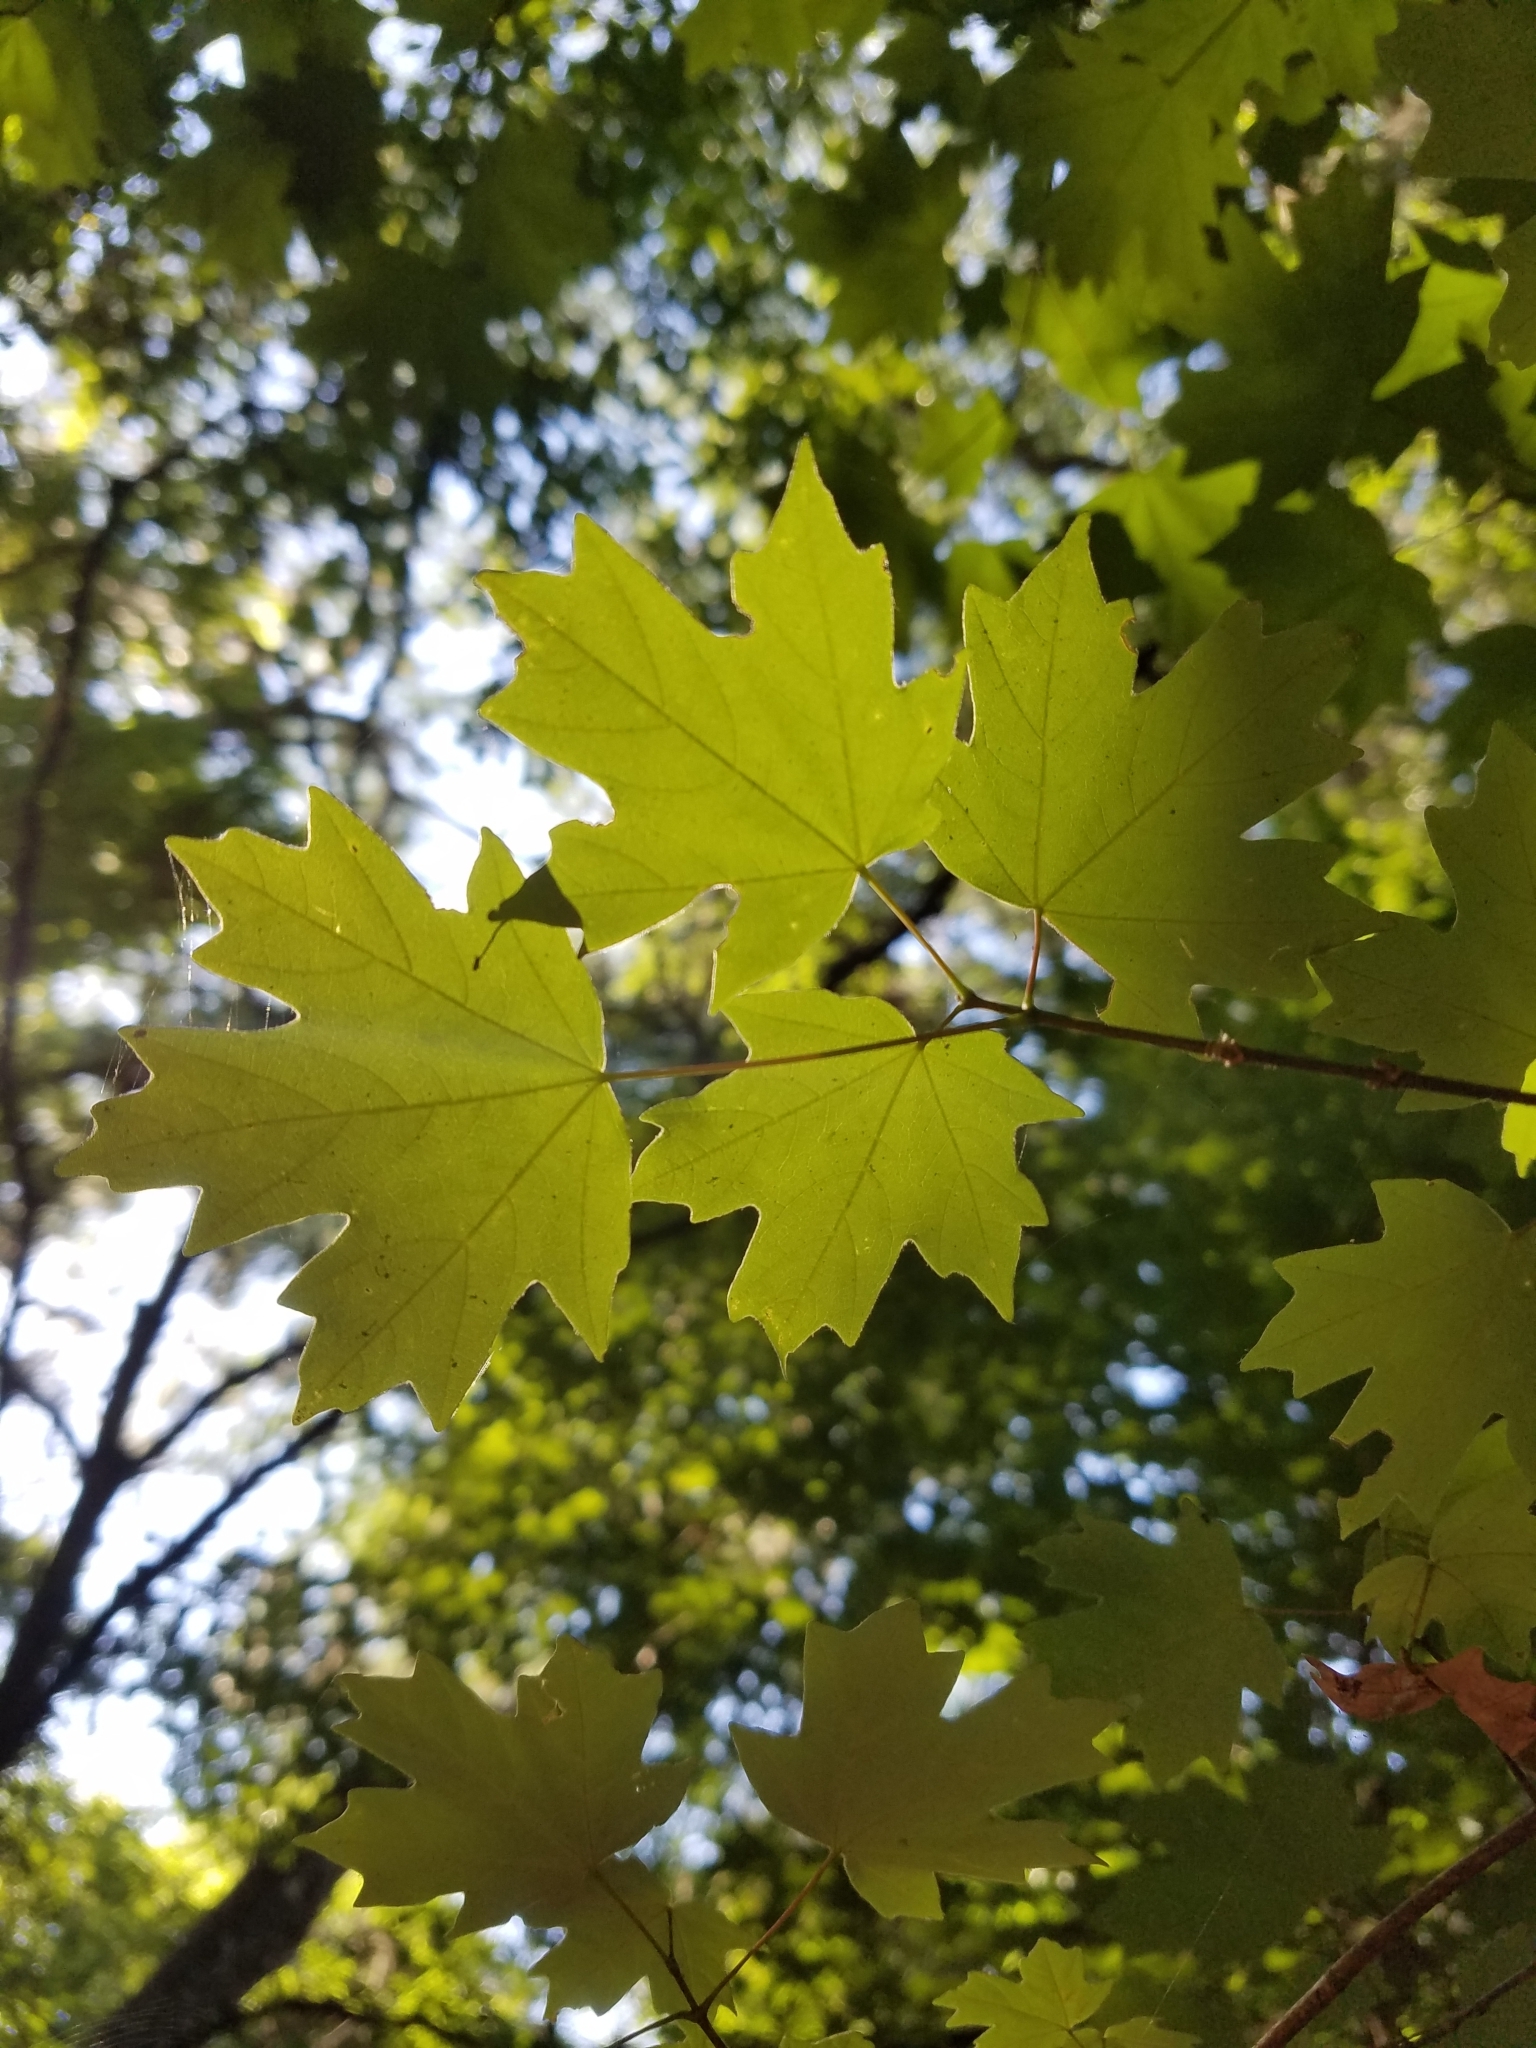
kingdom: Plantae
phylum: Tracheophyta
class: Magnoliopsida
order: Sapindales
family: Sapindaceae
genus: Acer
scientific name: Acer floridanum
